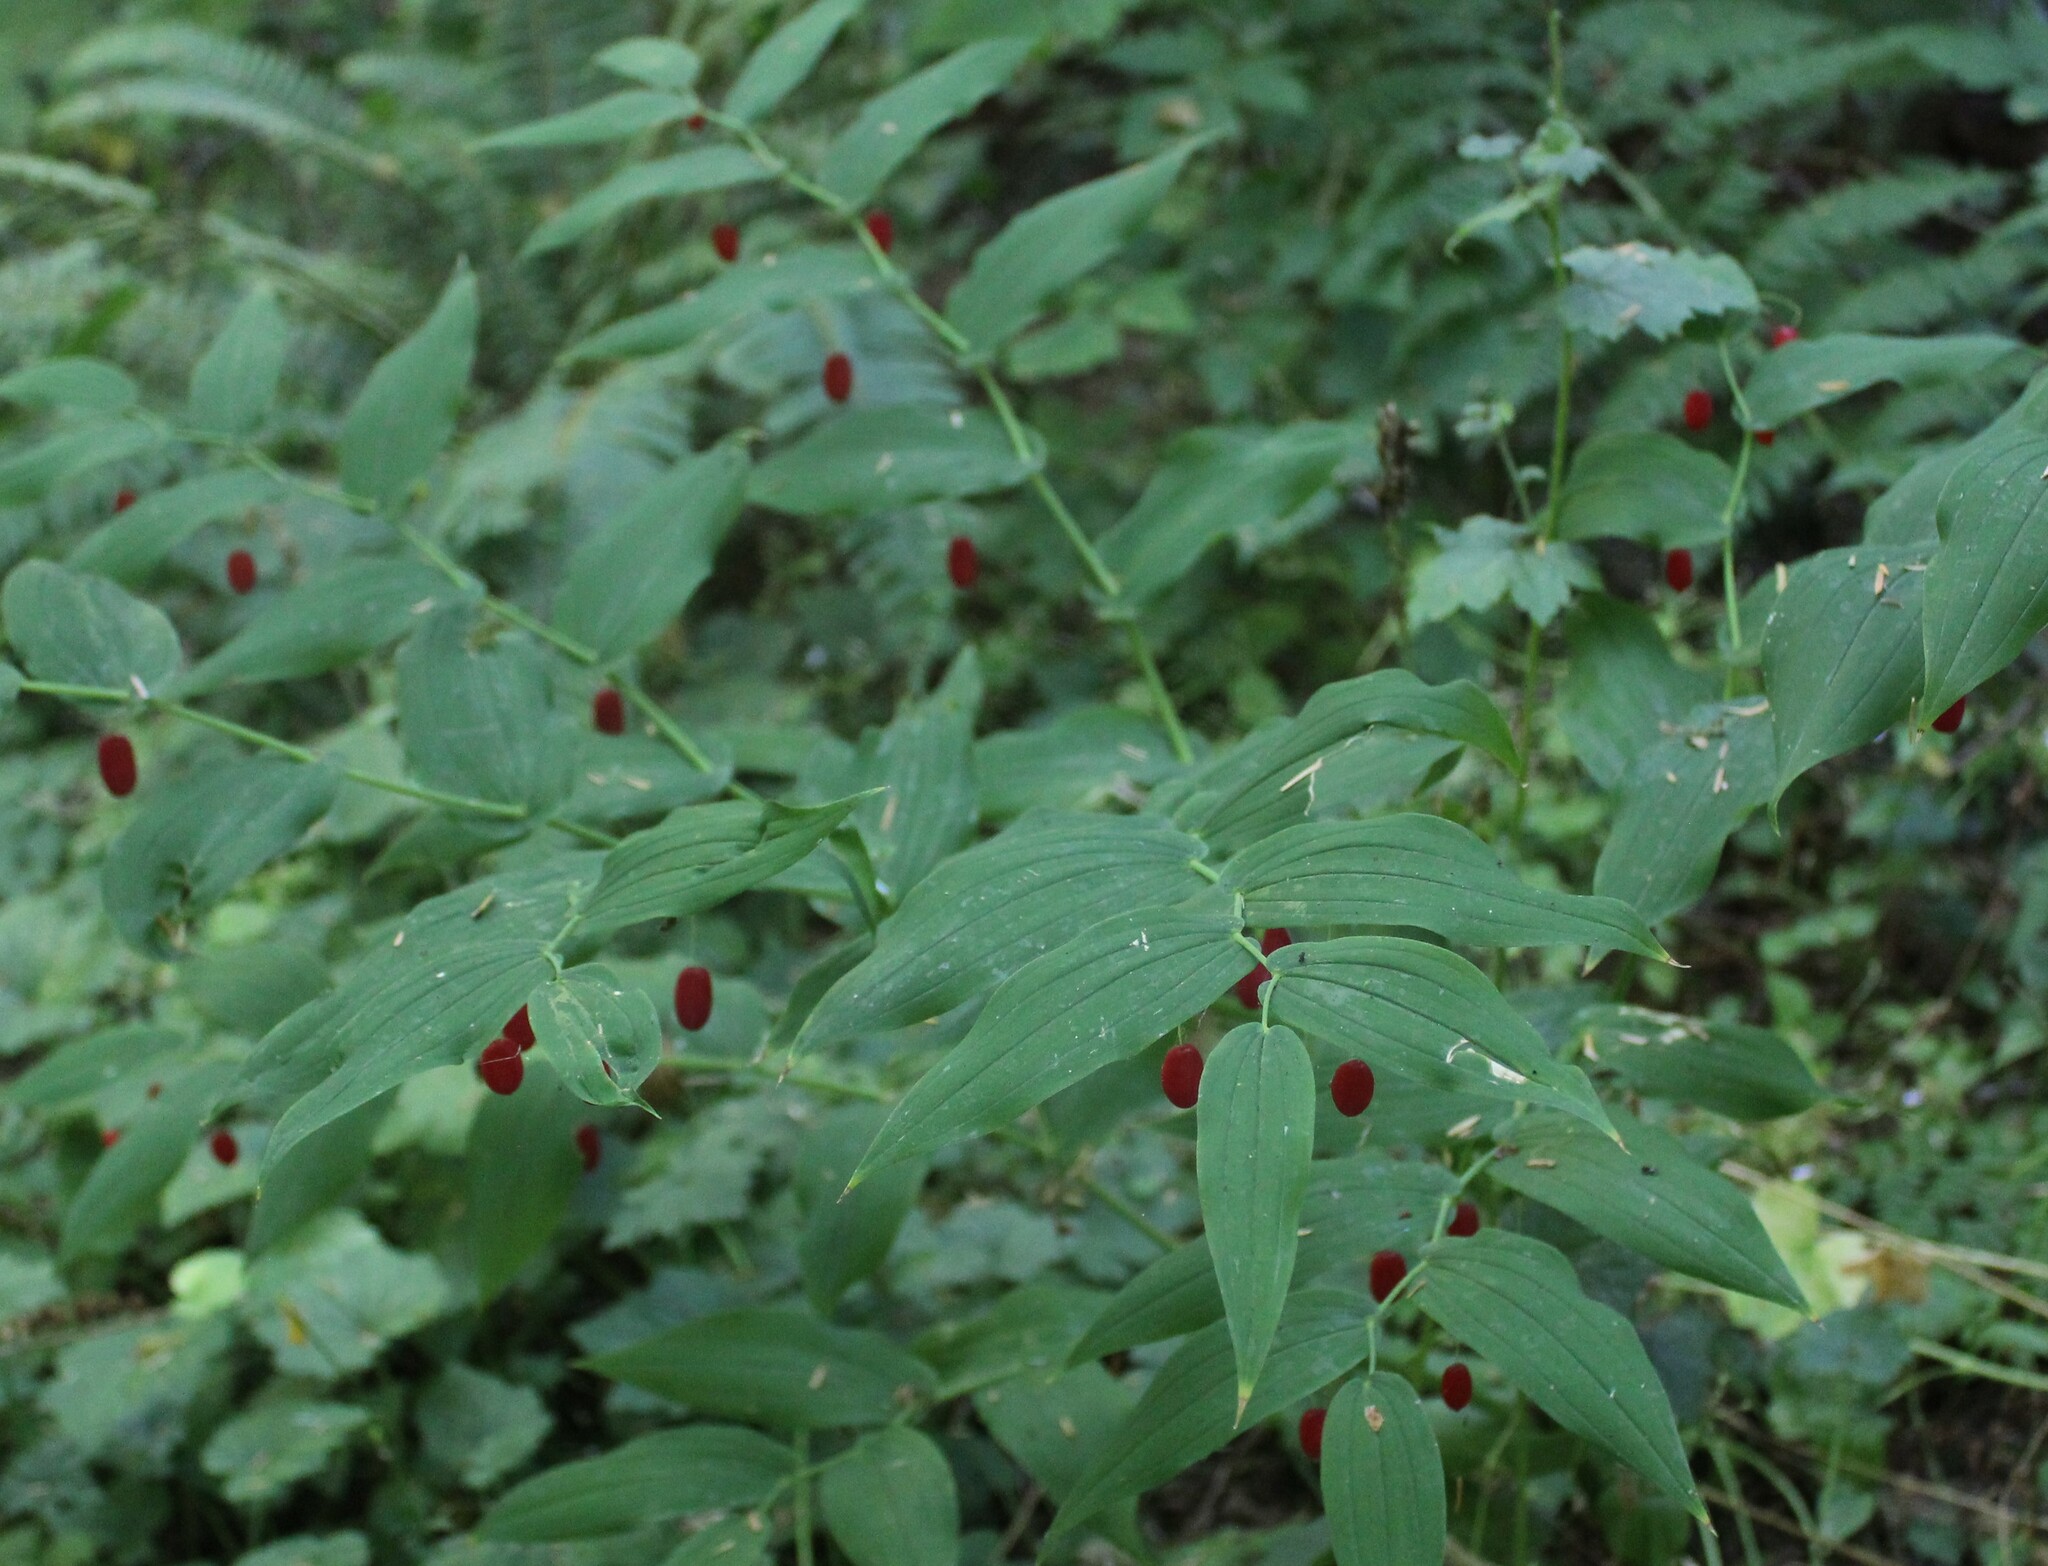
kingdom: Plantae
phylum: Tracheophyta
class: Liliopsida
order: Liliales
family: Liliaceae
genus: Streptopus
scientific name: Streptopus amplexifolius
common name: Clasp twisted stalk
